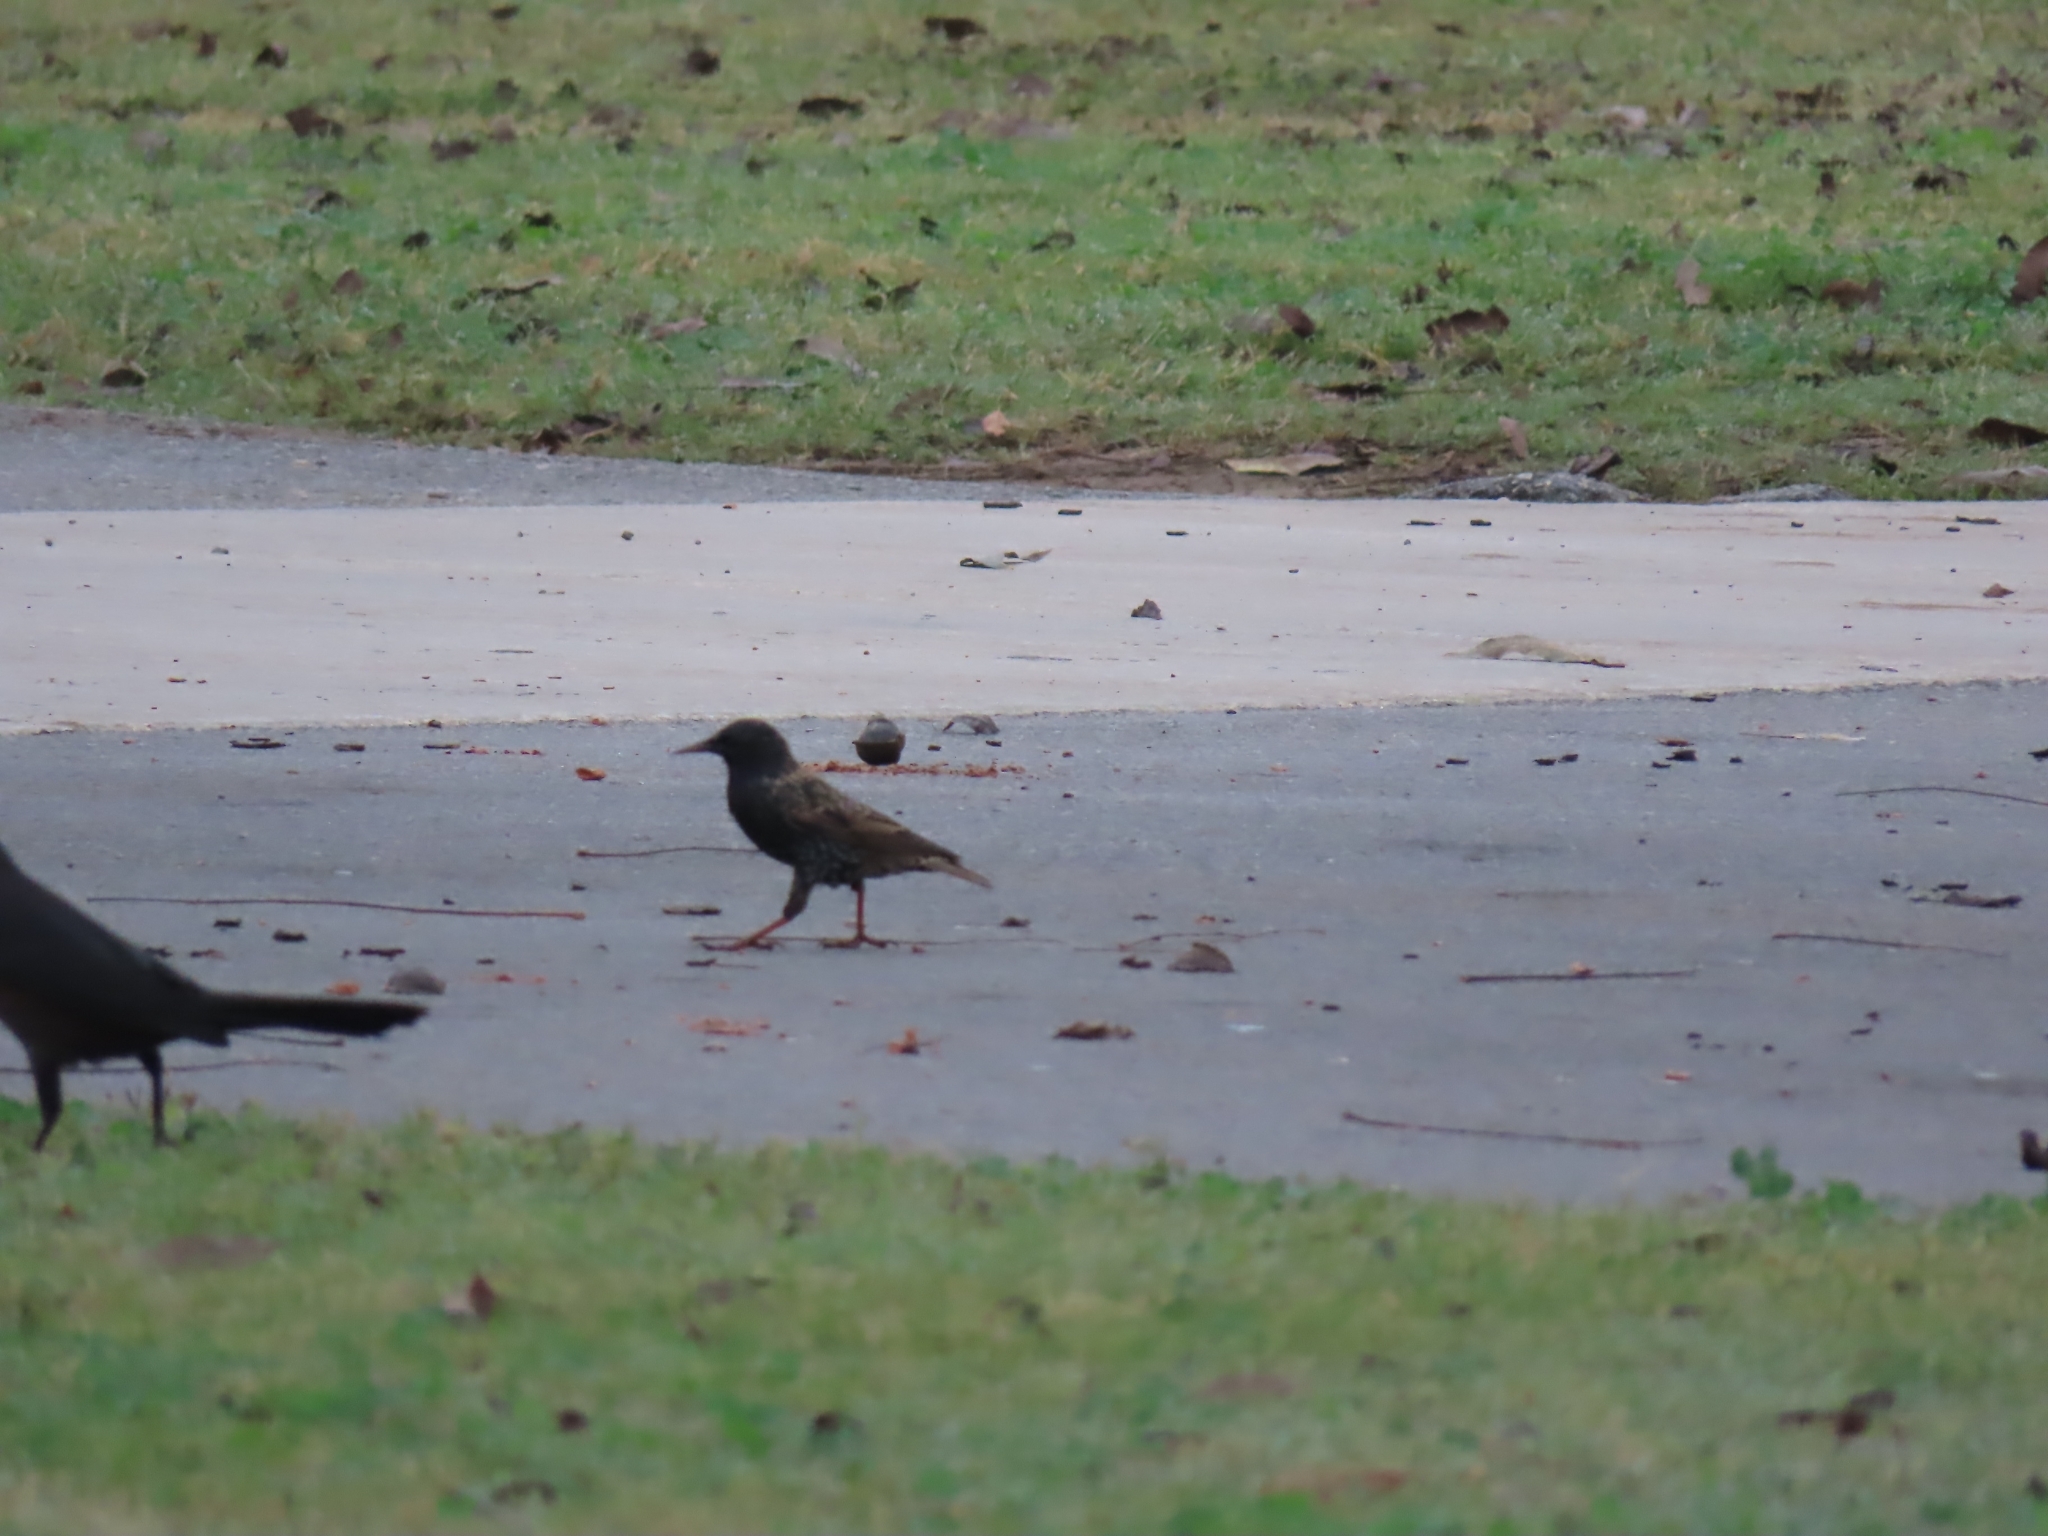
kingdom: Animalia
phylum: Chordata
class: Aves
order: Passeriformes
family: Sturnidae
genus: Sturnus
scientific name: Sturnus vulgaris
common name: Common starling
